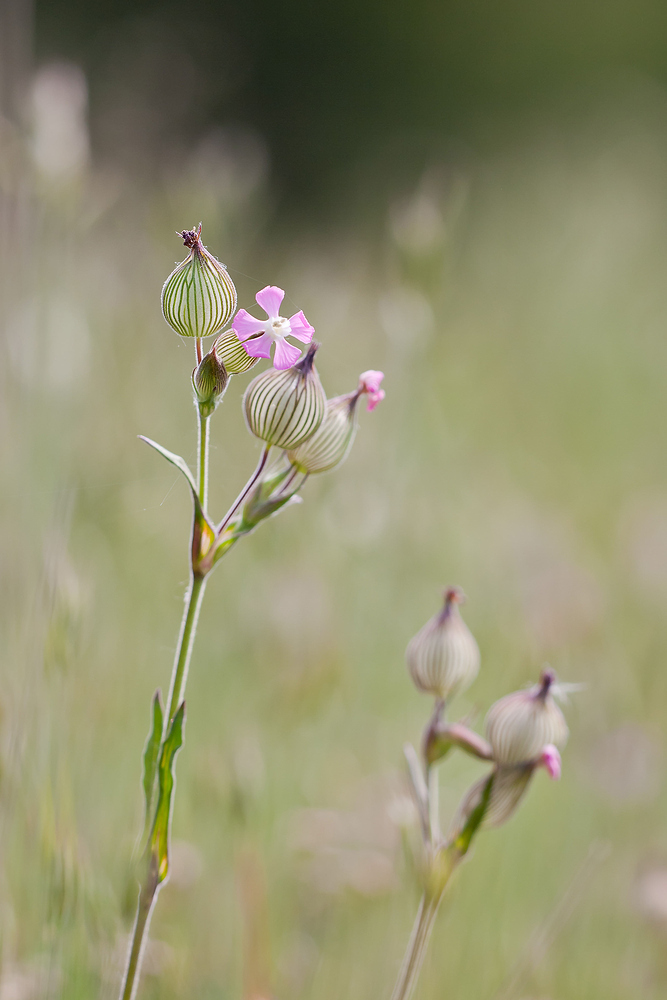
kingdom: Plantae
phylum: Tracheophyta
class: Magnoliopsida
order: Caryophyllales
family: Caryophyllaceae
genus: Silene
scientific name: Silene conica
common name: Sand catchfly
